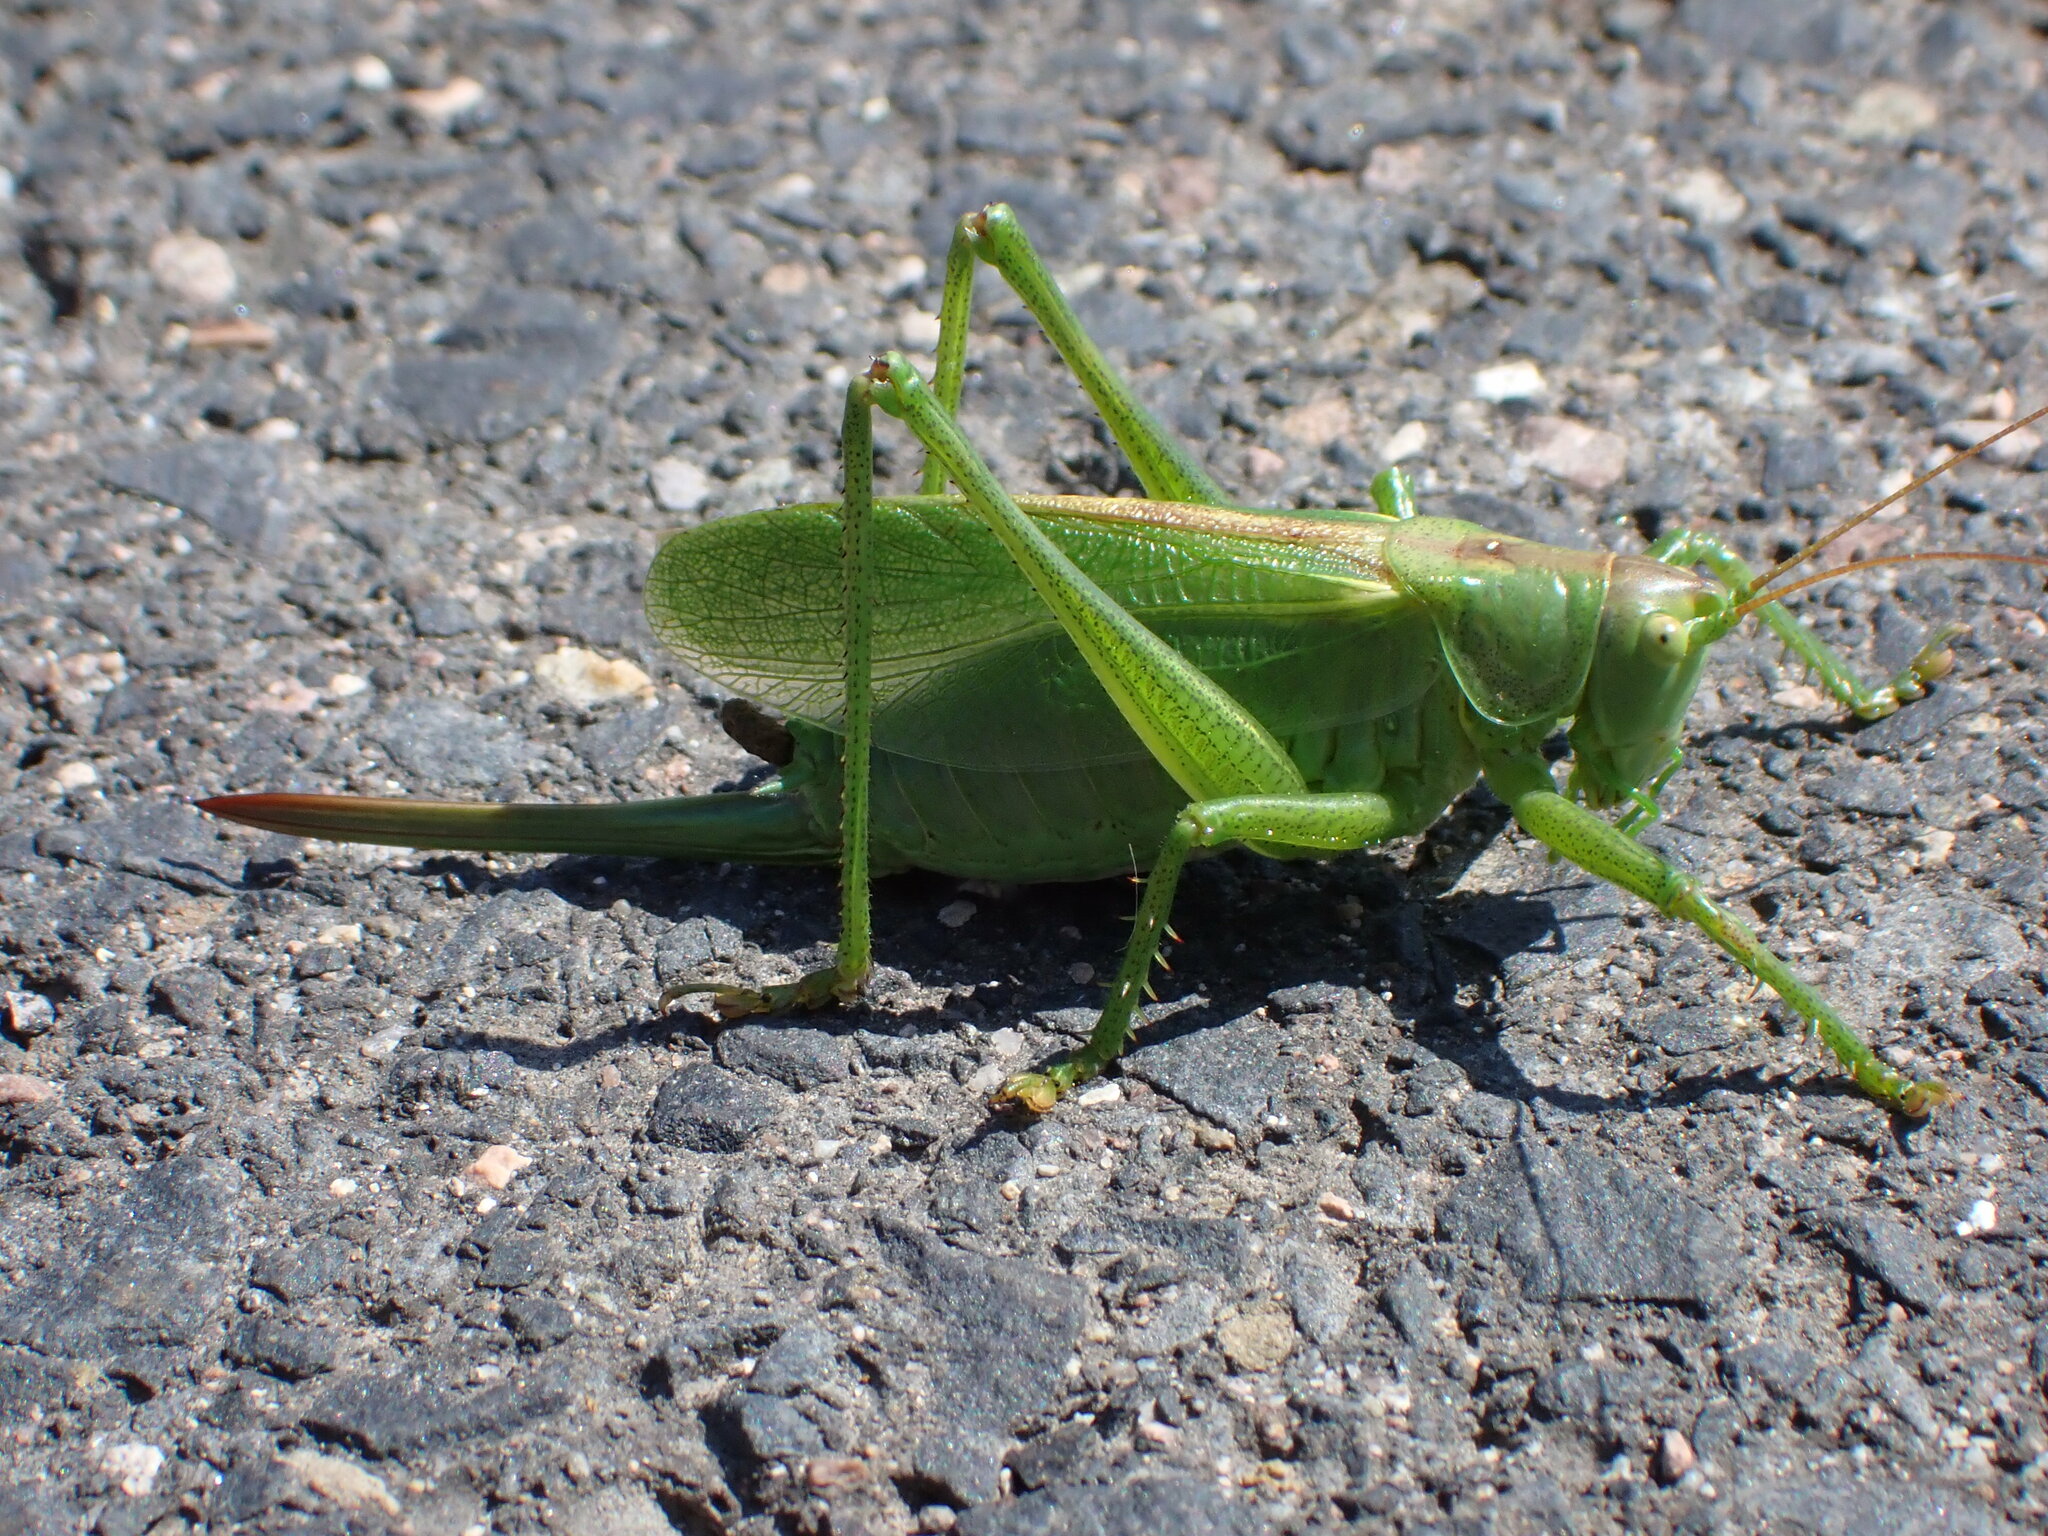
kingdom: Animalia
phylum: Arthropoda
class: Insecta
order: Orthoptera
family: Tettigoniidae
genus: Tettigonia
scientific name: Tettigonia cantans
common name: Upland green bush-cricket
